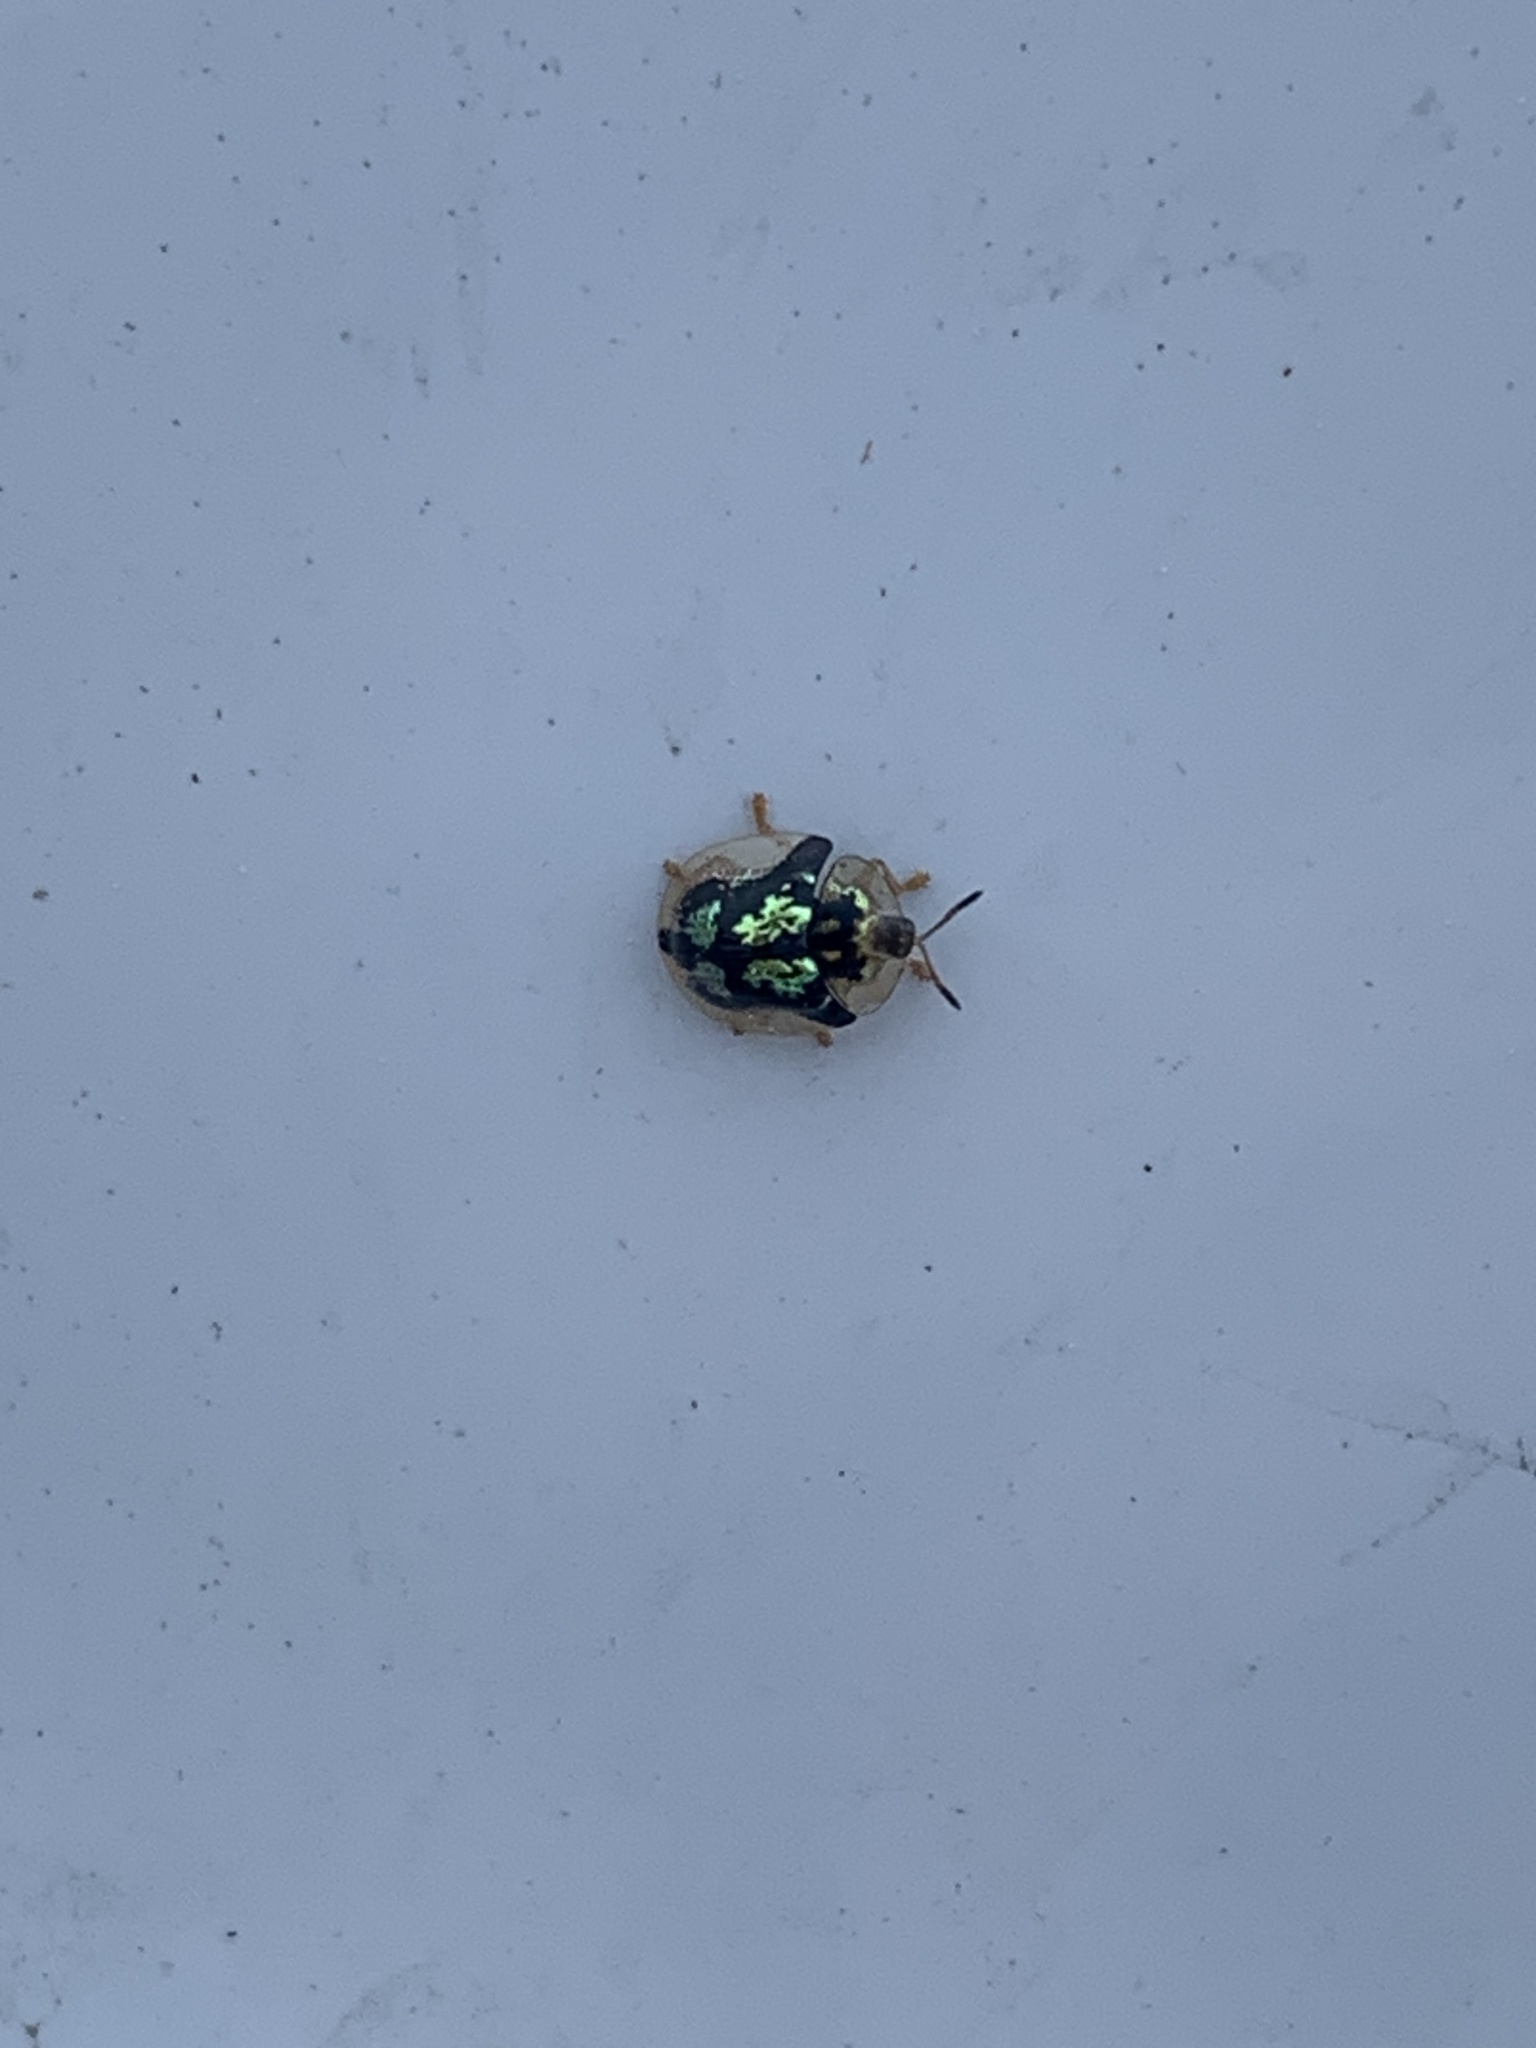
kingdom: Animalia
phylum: Arthropoda
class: Insecta
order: Coleoptera
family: Chrysomelidae
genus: Deloyala
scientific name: Deloyala guttata
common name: Mottled tortoise beetle
